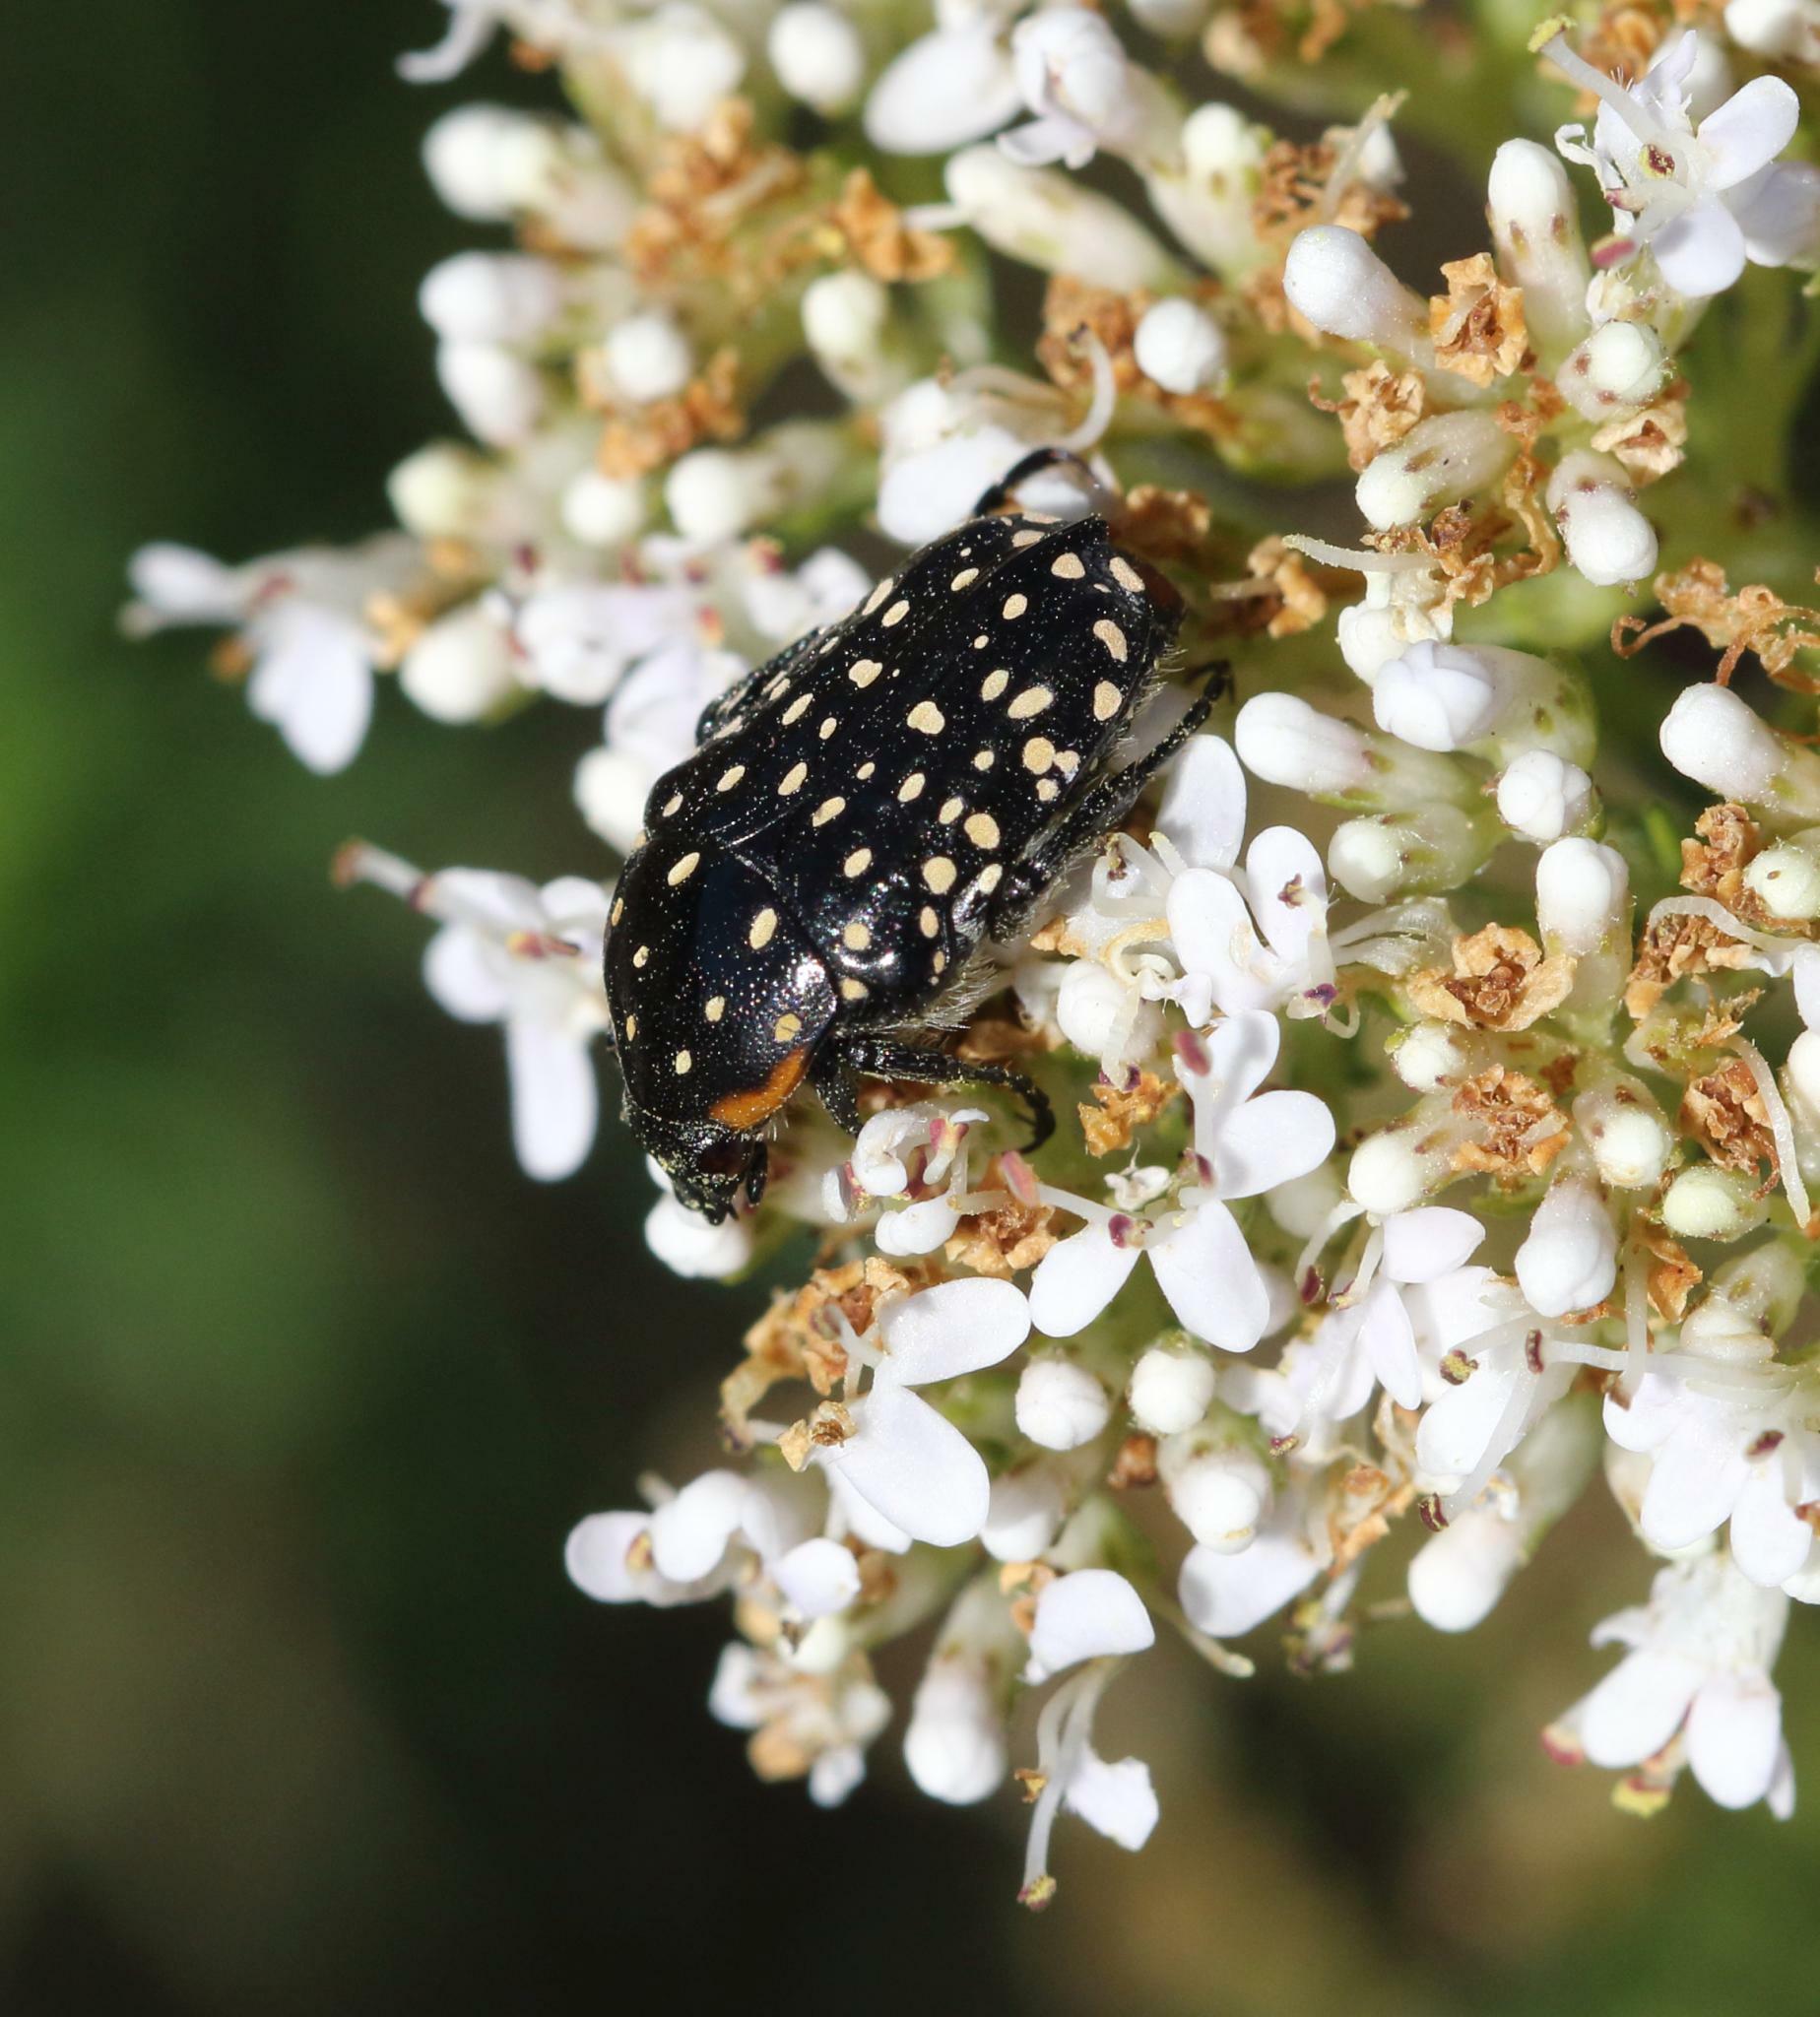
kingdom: Animalia
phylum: Arthropoda
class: Insecta
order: Coleoptera
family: Scarabaeidae
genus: Oxythyrea
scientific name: Oxythyrea
